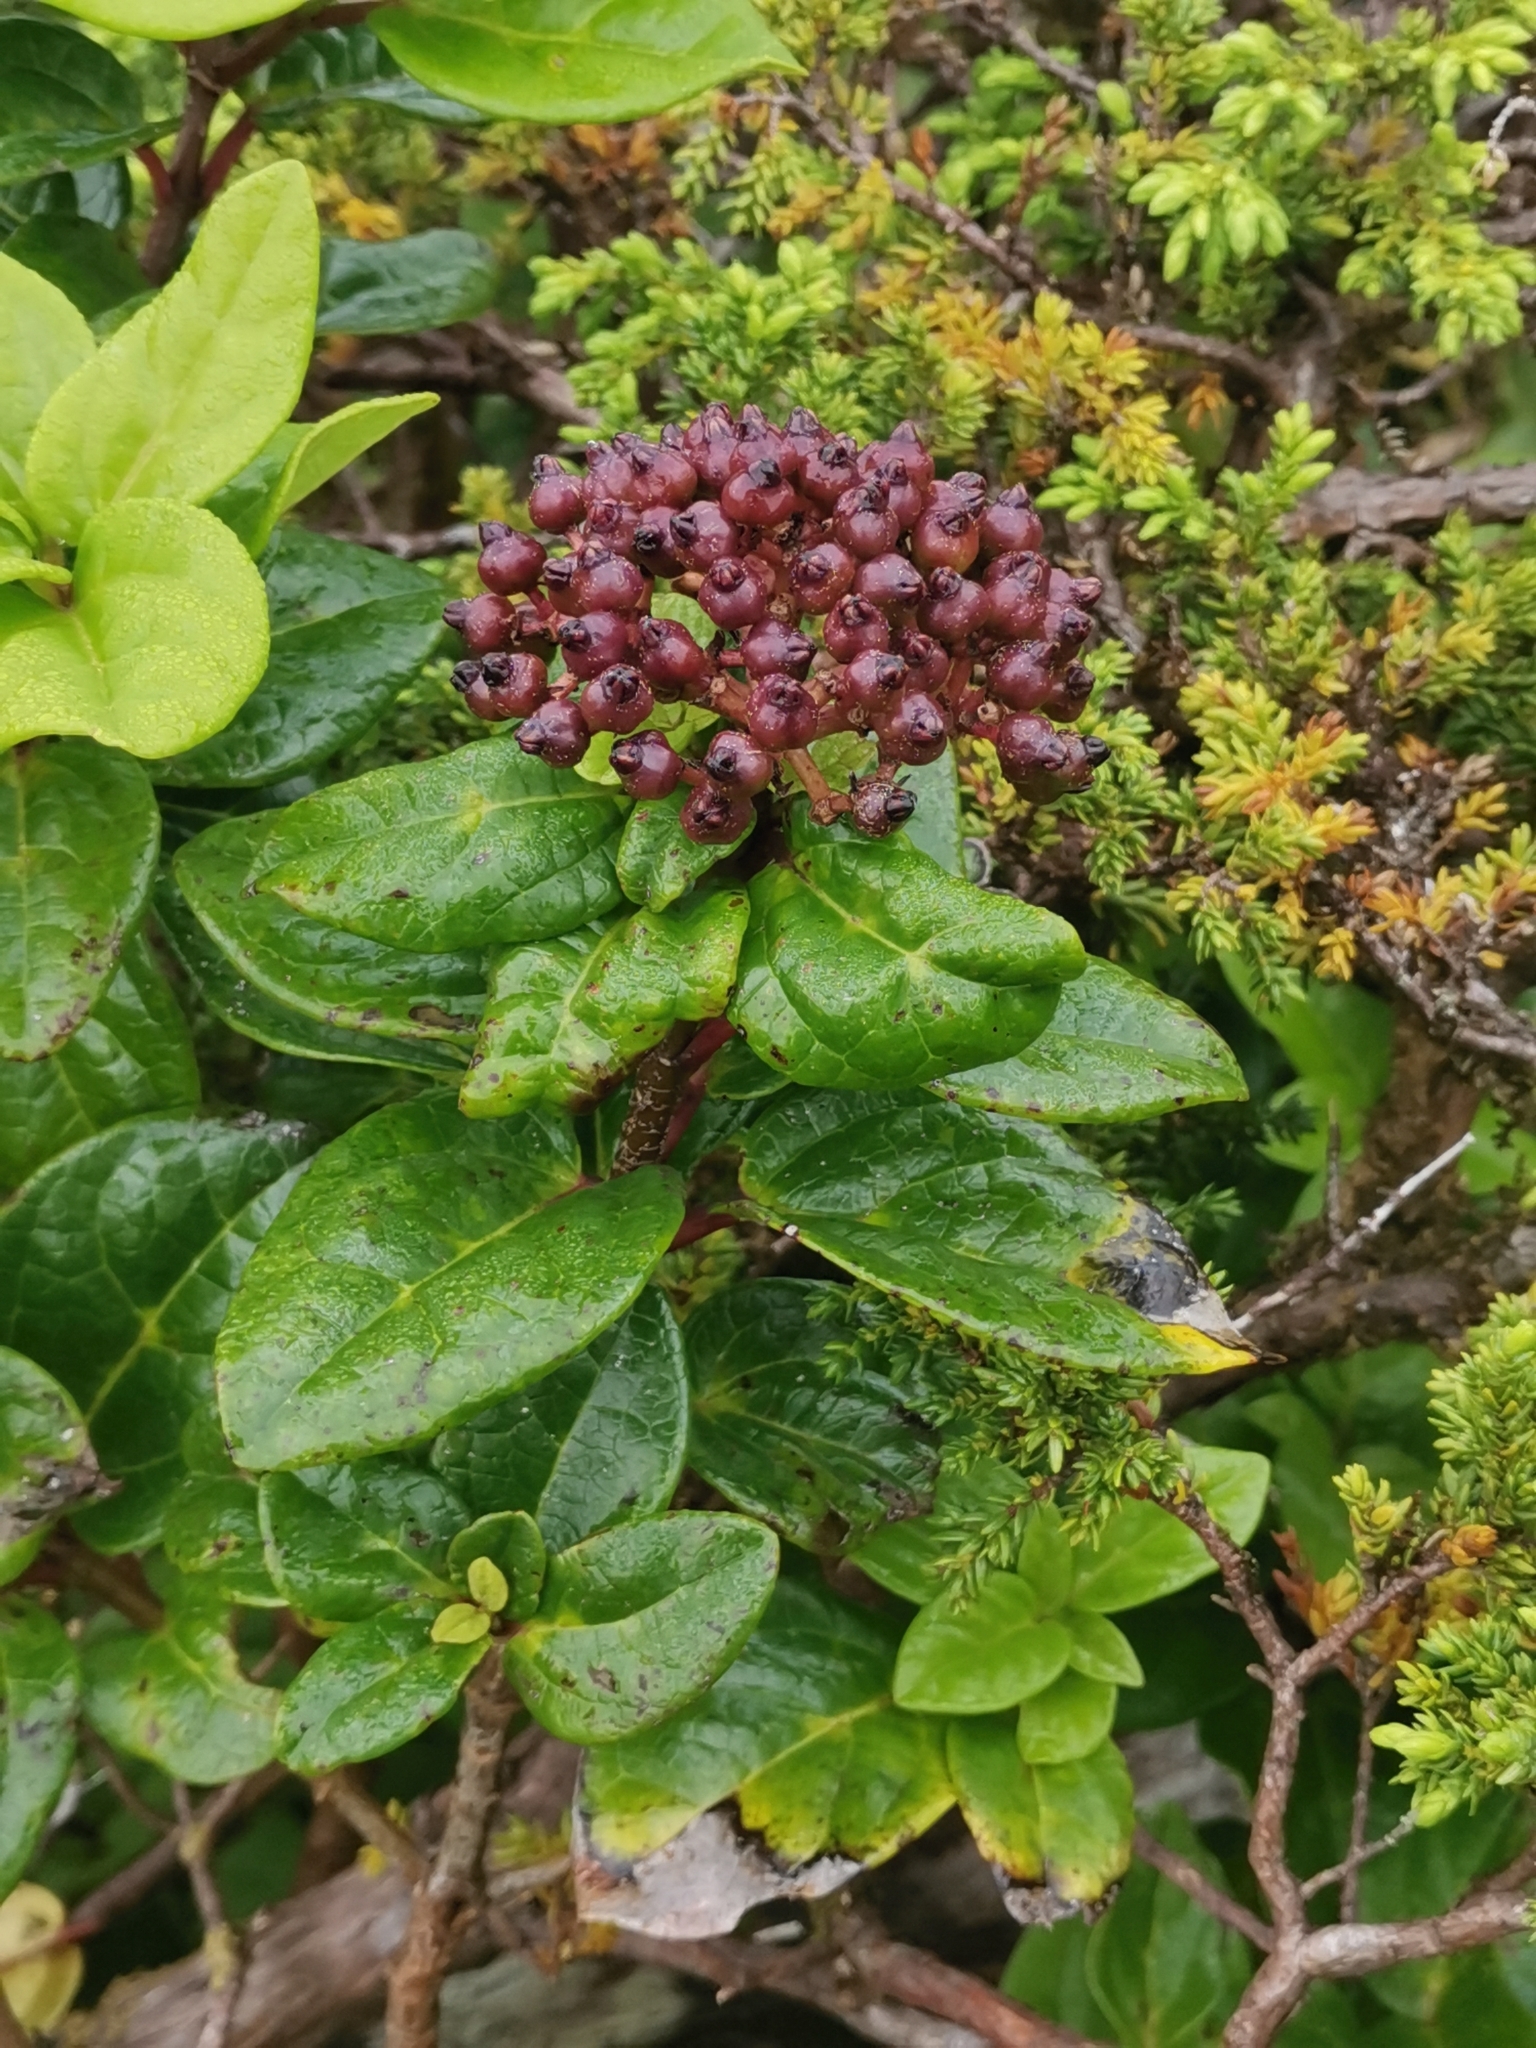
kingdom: Plantae
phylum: Tracheophyta
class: Magnoliopsida
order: Dipsacales
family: Viburnaceae
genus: Viburnum
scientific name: Viburnum treleasei
